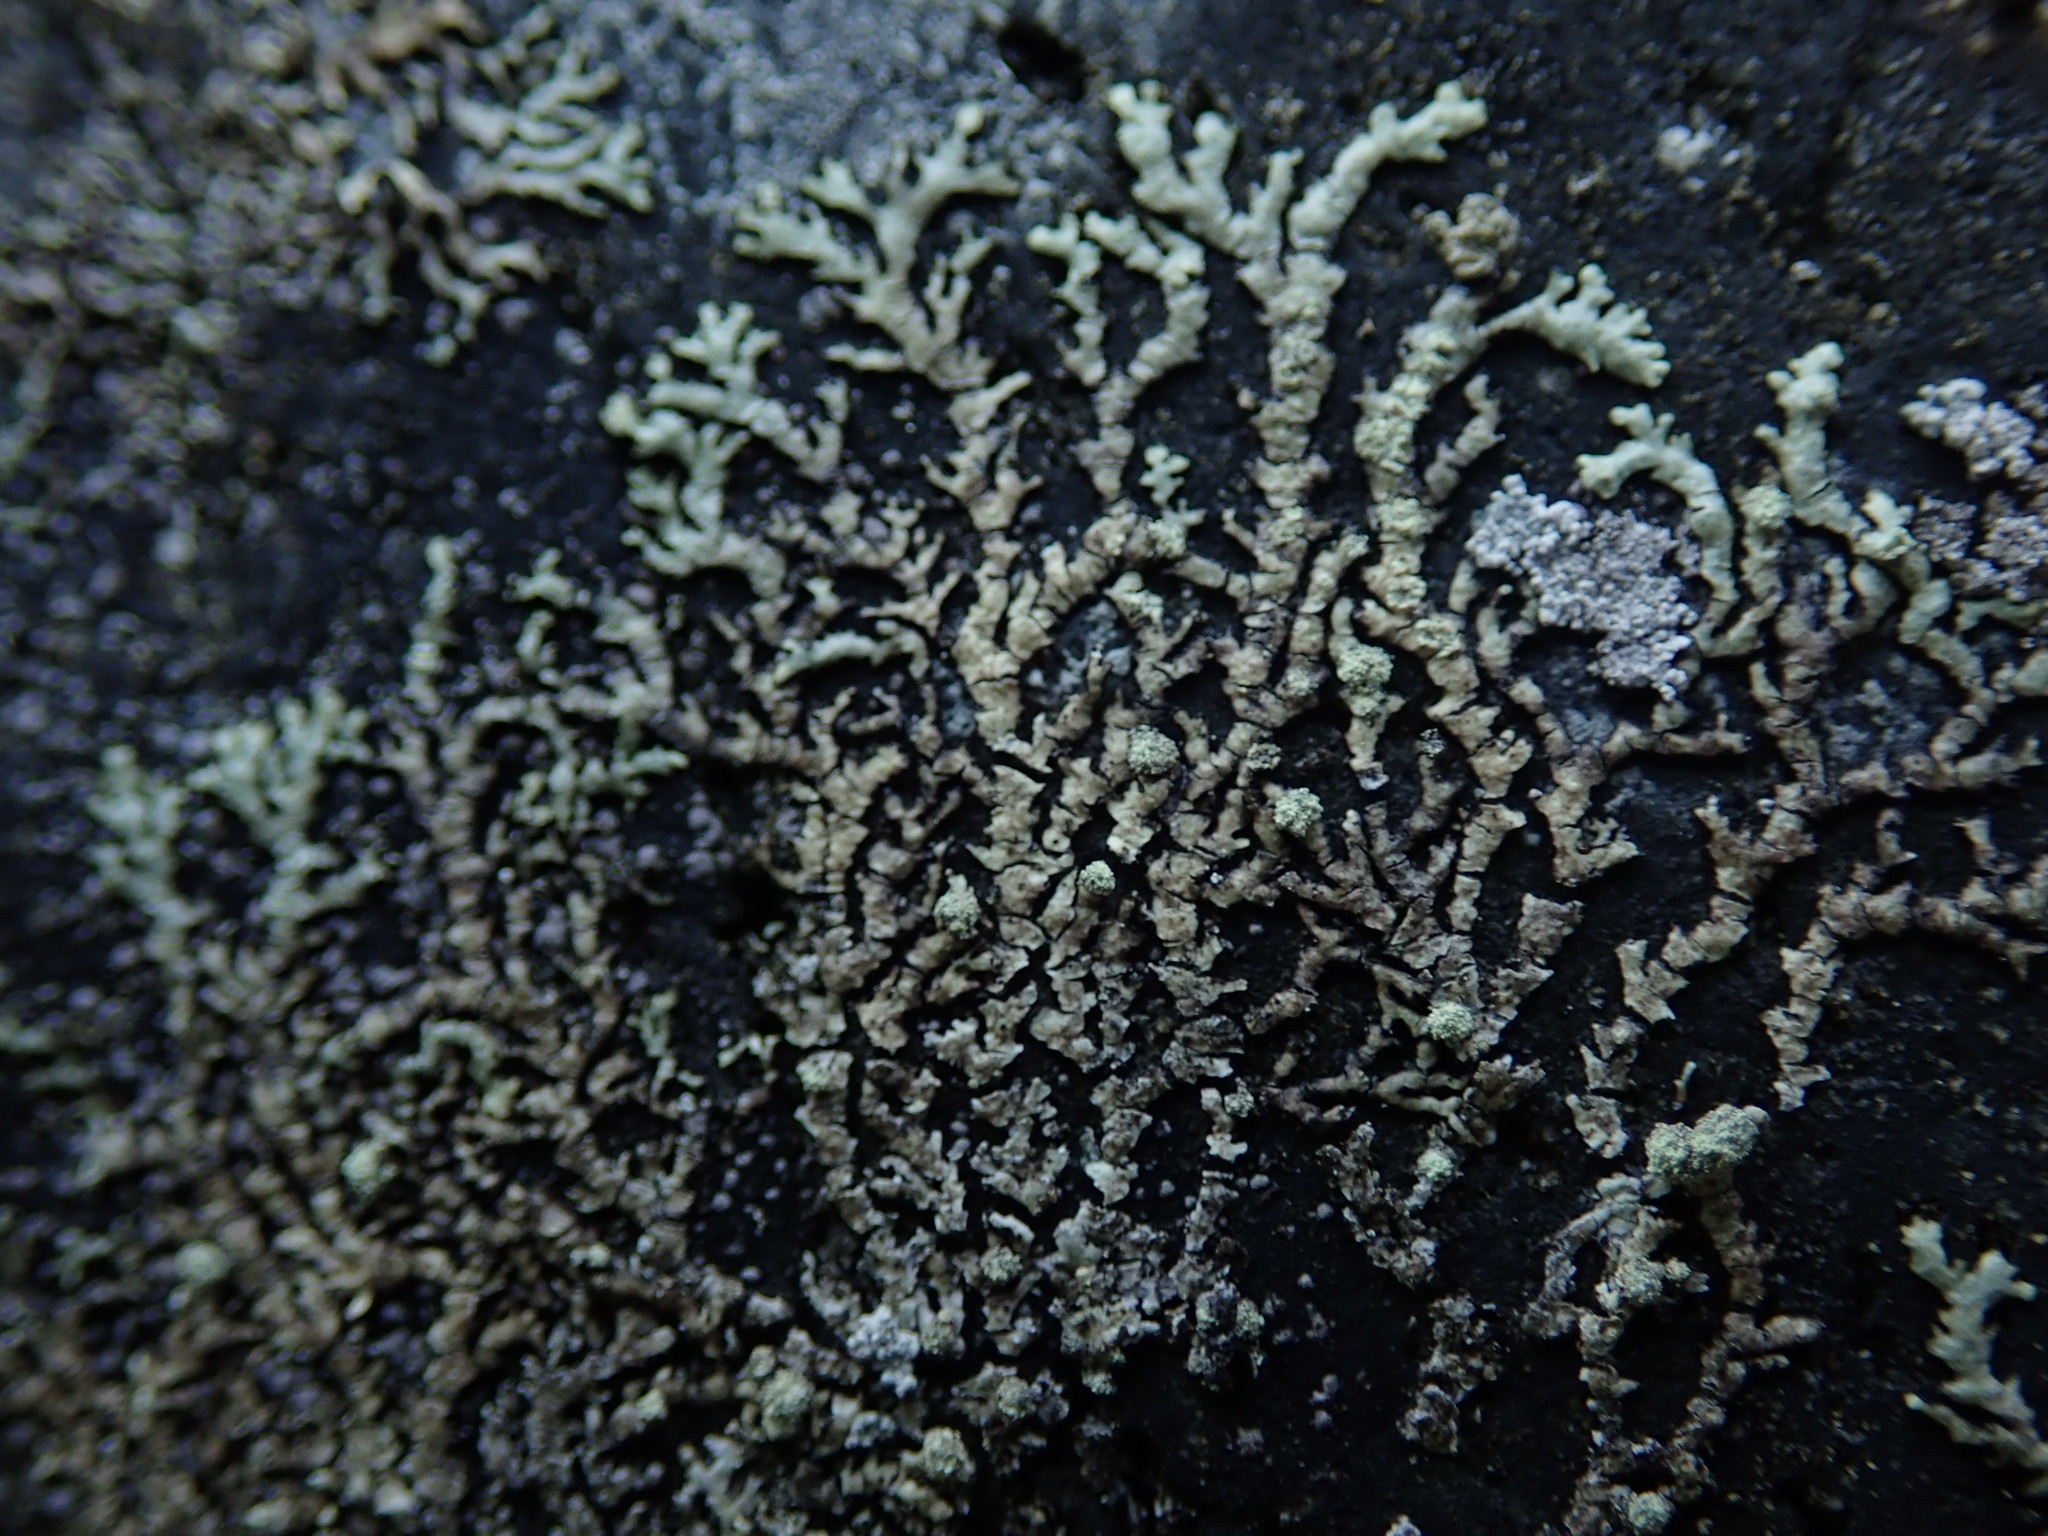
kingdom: Fungi
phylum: Ascomycota
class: Lecanoromycetes
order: Lecanorales
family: Parmeliaceae
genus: Xanthoparmelia
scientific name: Xanthoparmelia mougeotii
